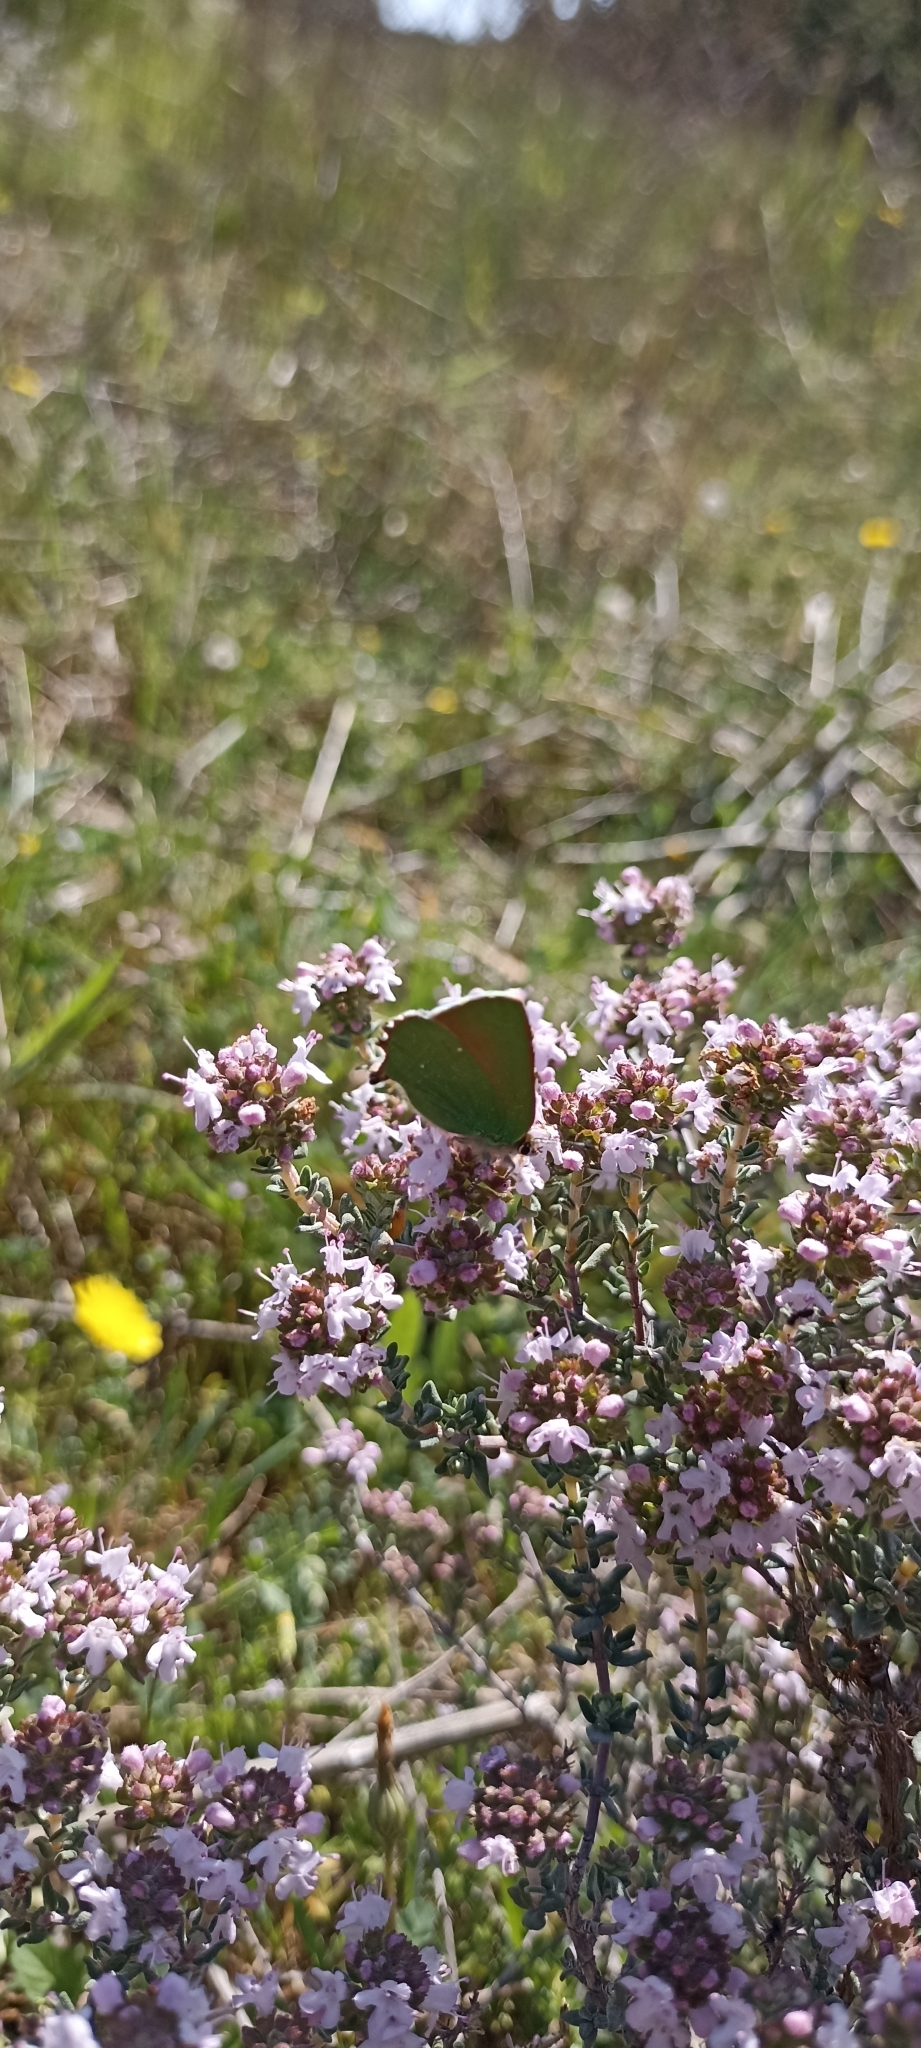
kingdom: Animalia
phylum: Arthropoda
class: Insecta
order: Lepidoptera
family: Lycaenidae
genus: Callophrys
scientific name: Callophrys rubi
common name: Green hairstreak
